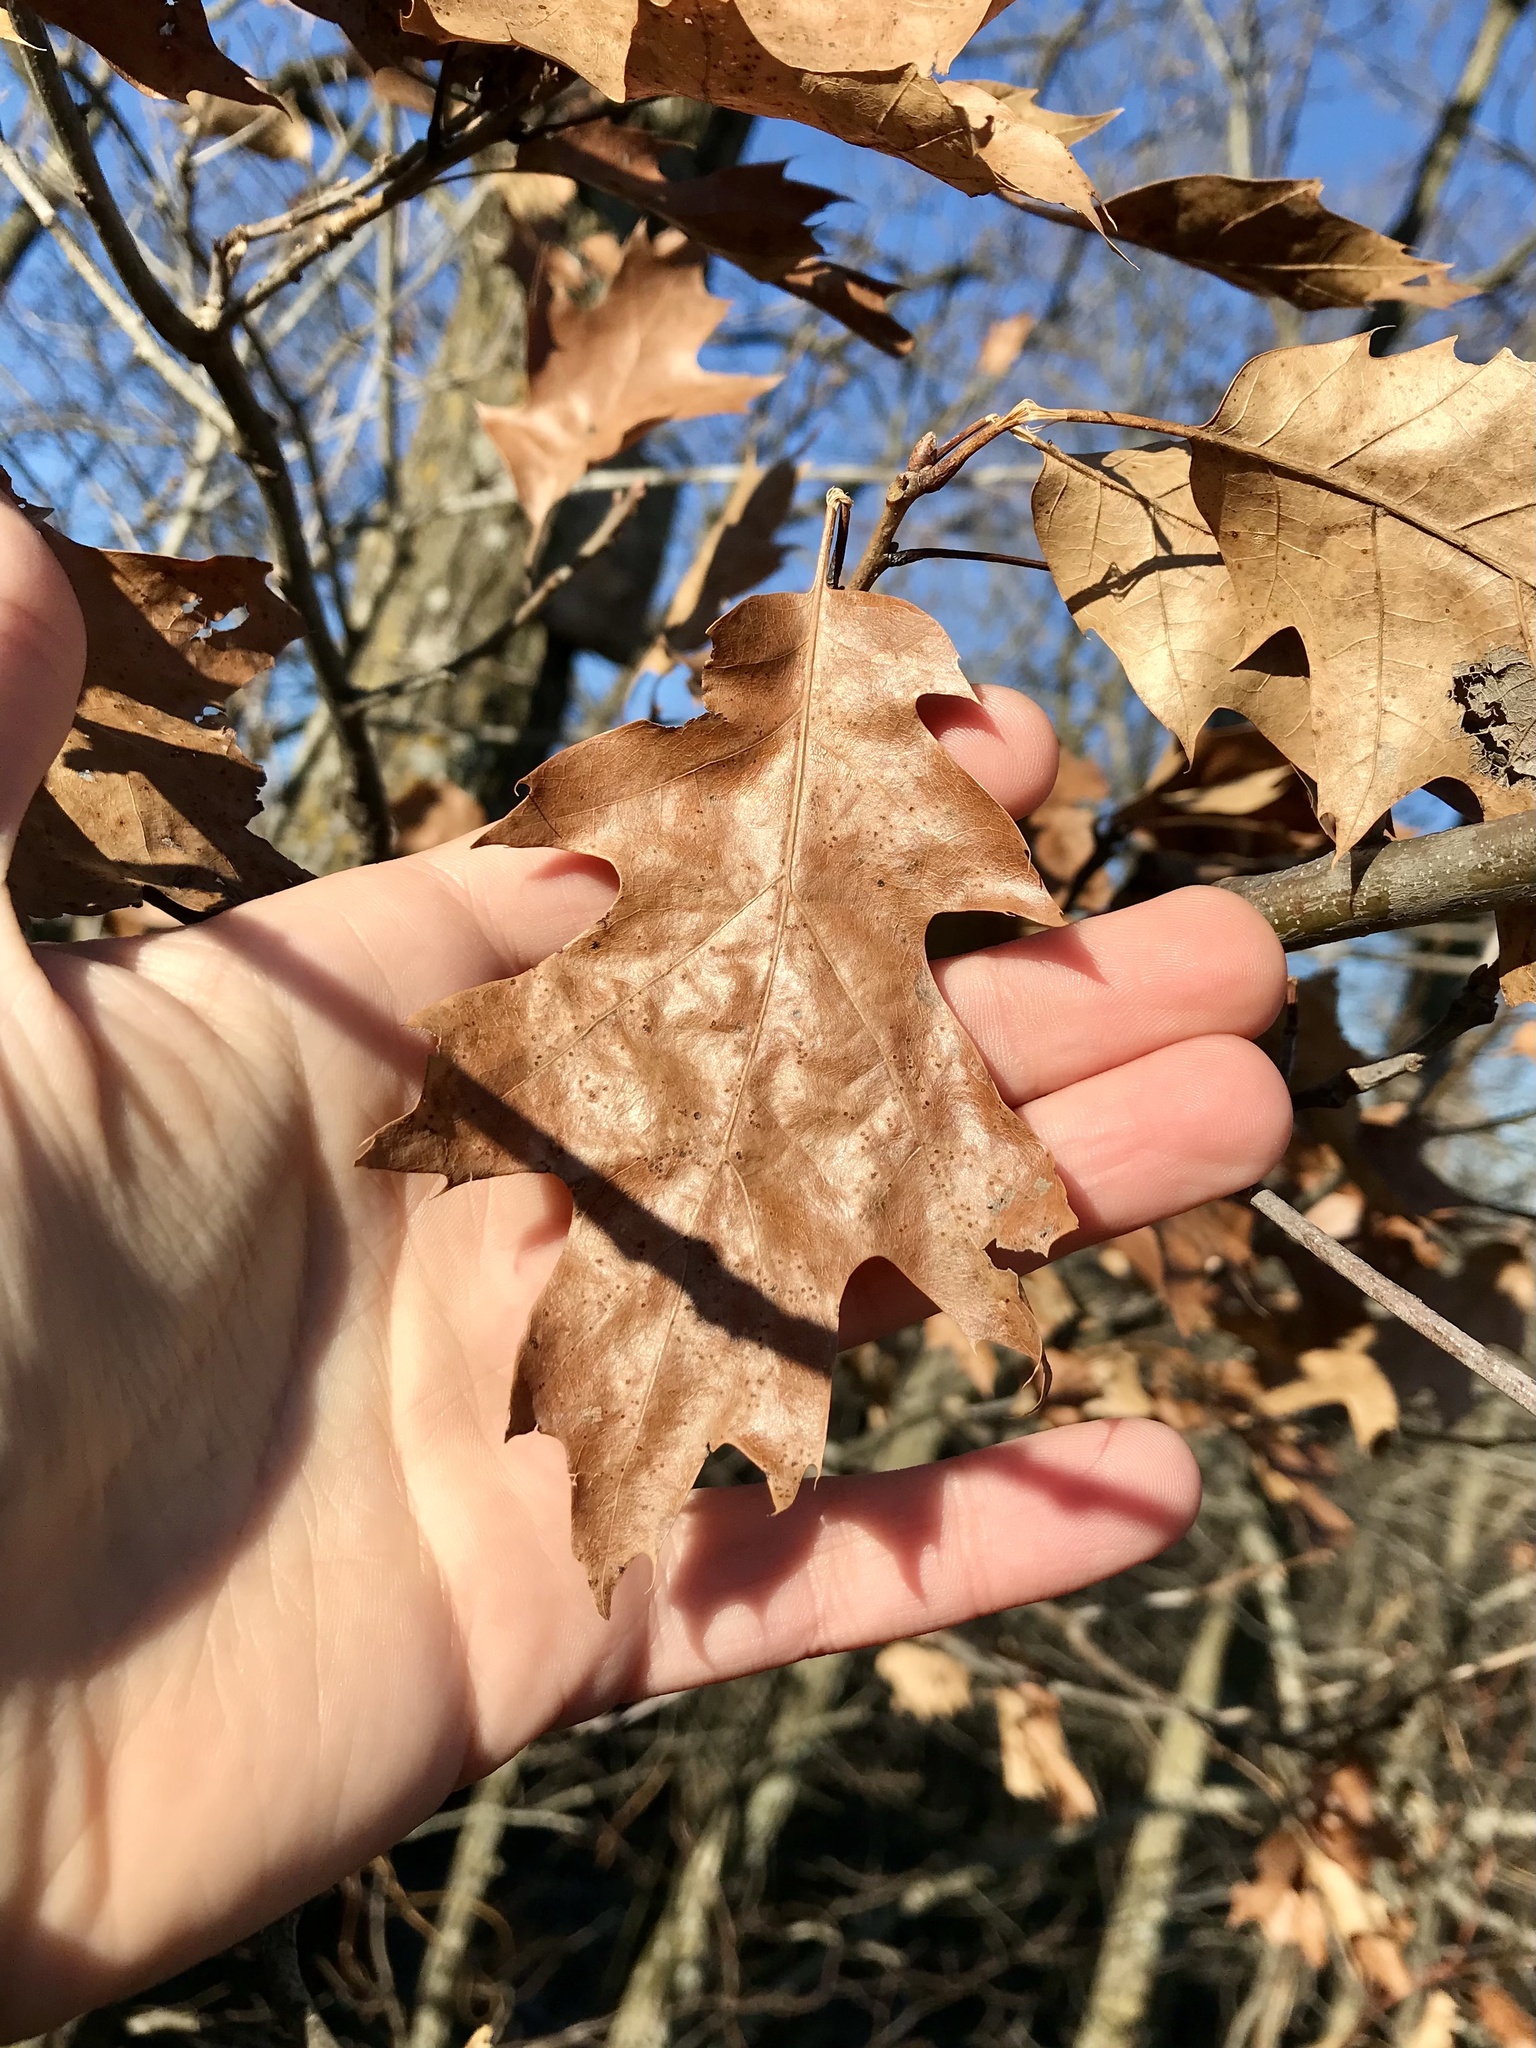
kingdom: Plantae
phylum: Tracheophyta
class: Magnoliopsida
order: Fagales
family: Fagaceae
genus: Quercus
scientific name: Quercus velutina
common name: Black oak
